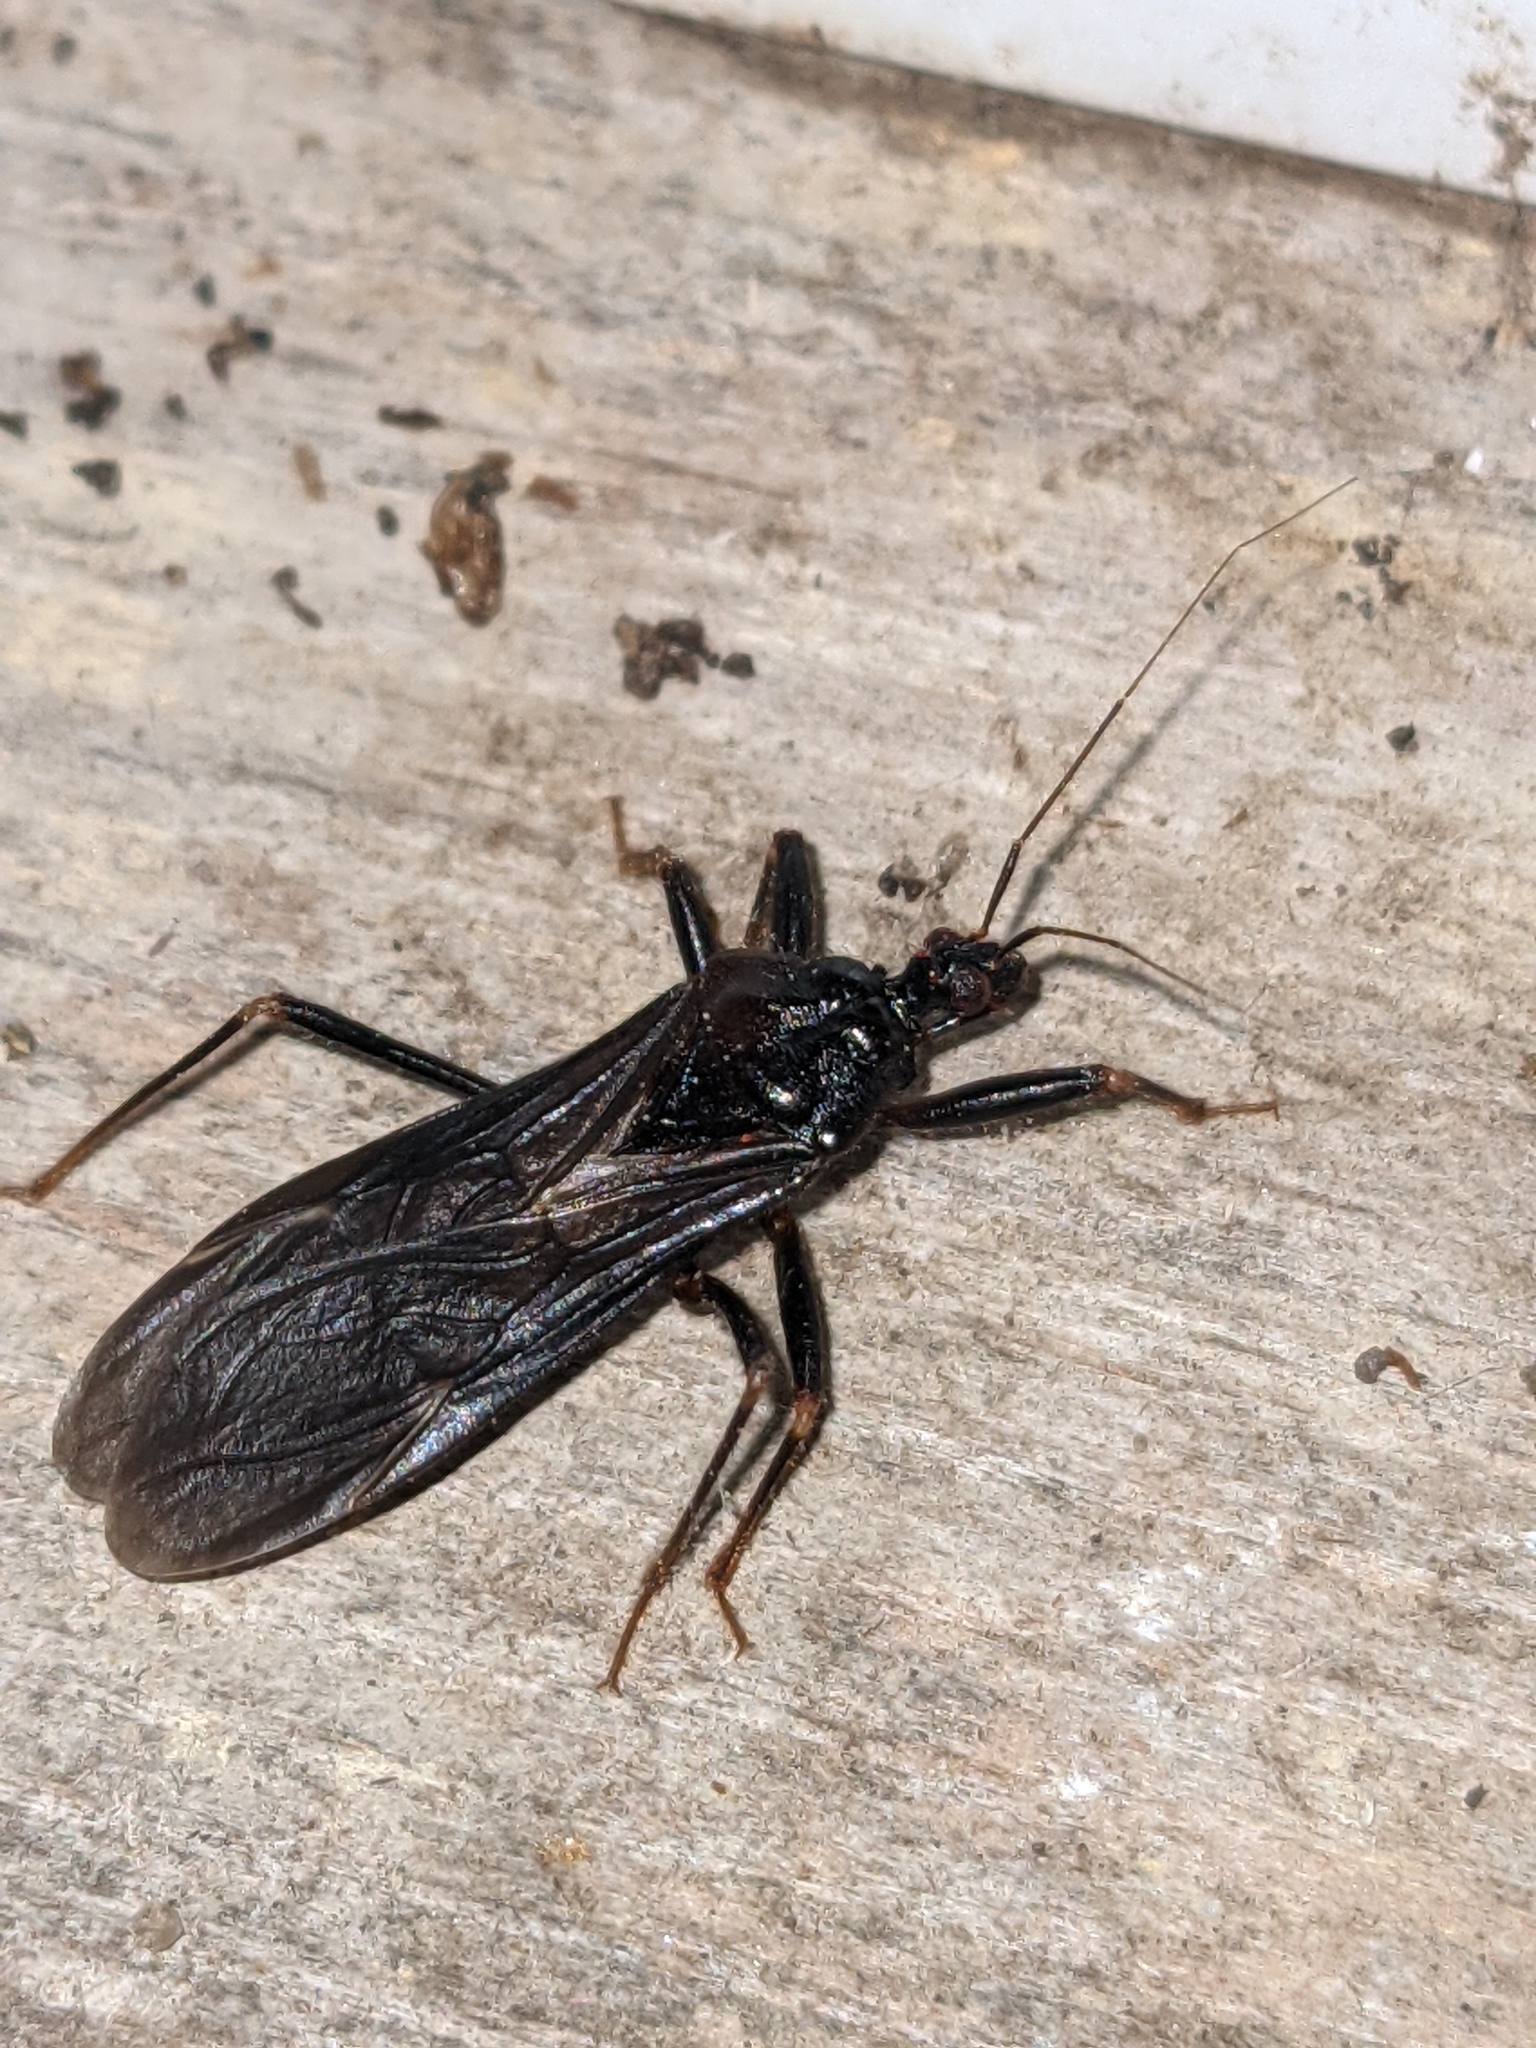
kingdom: Animalia
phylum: Arthropoda
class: Insecta
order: Hemiptera
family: Reduviidae
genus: Reduvius
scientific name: Reduvius personatus
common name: Masked hunter
